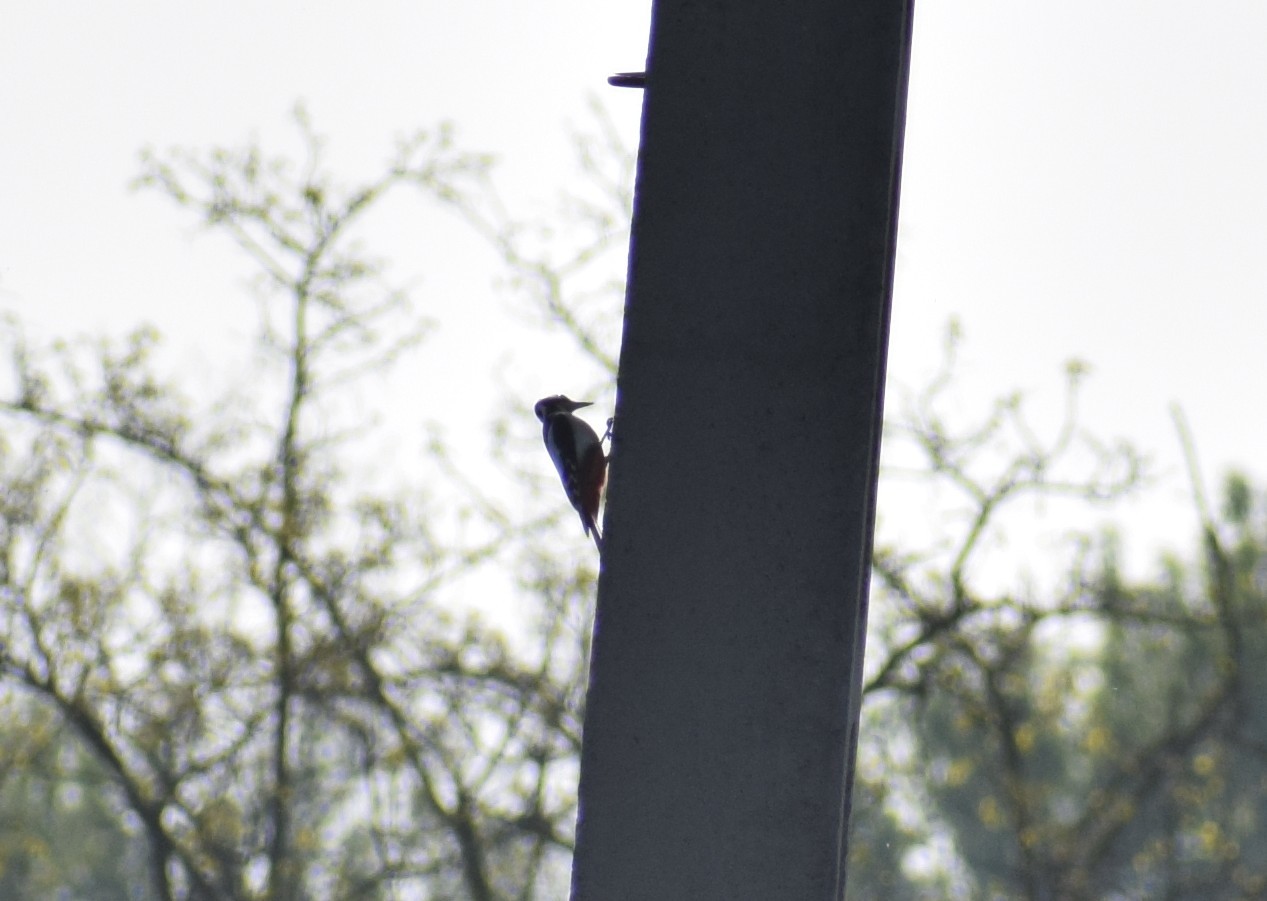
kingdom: Animalia
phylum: Chordata
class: Aves
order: Piciformes
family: Picidae
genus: Dendrocopos
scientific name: Dendrocopos major
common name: Great spotted woodpecker
